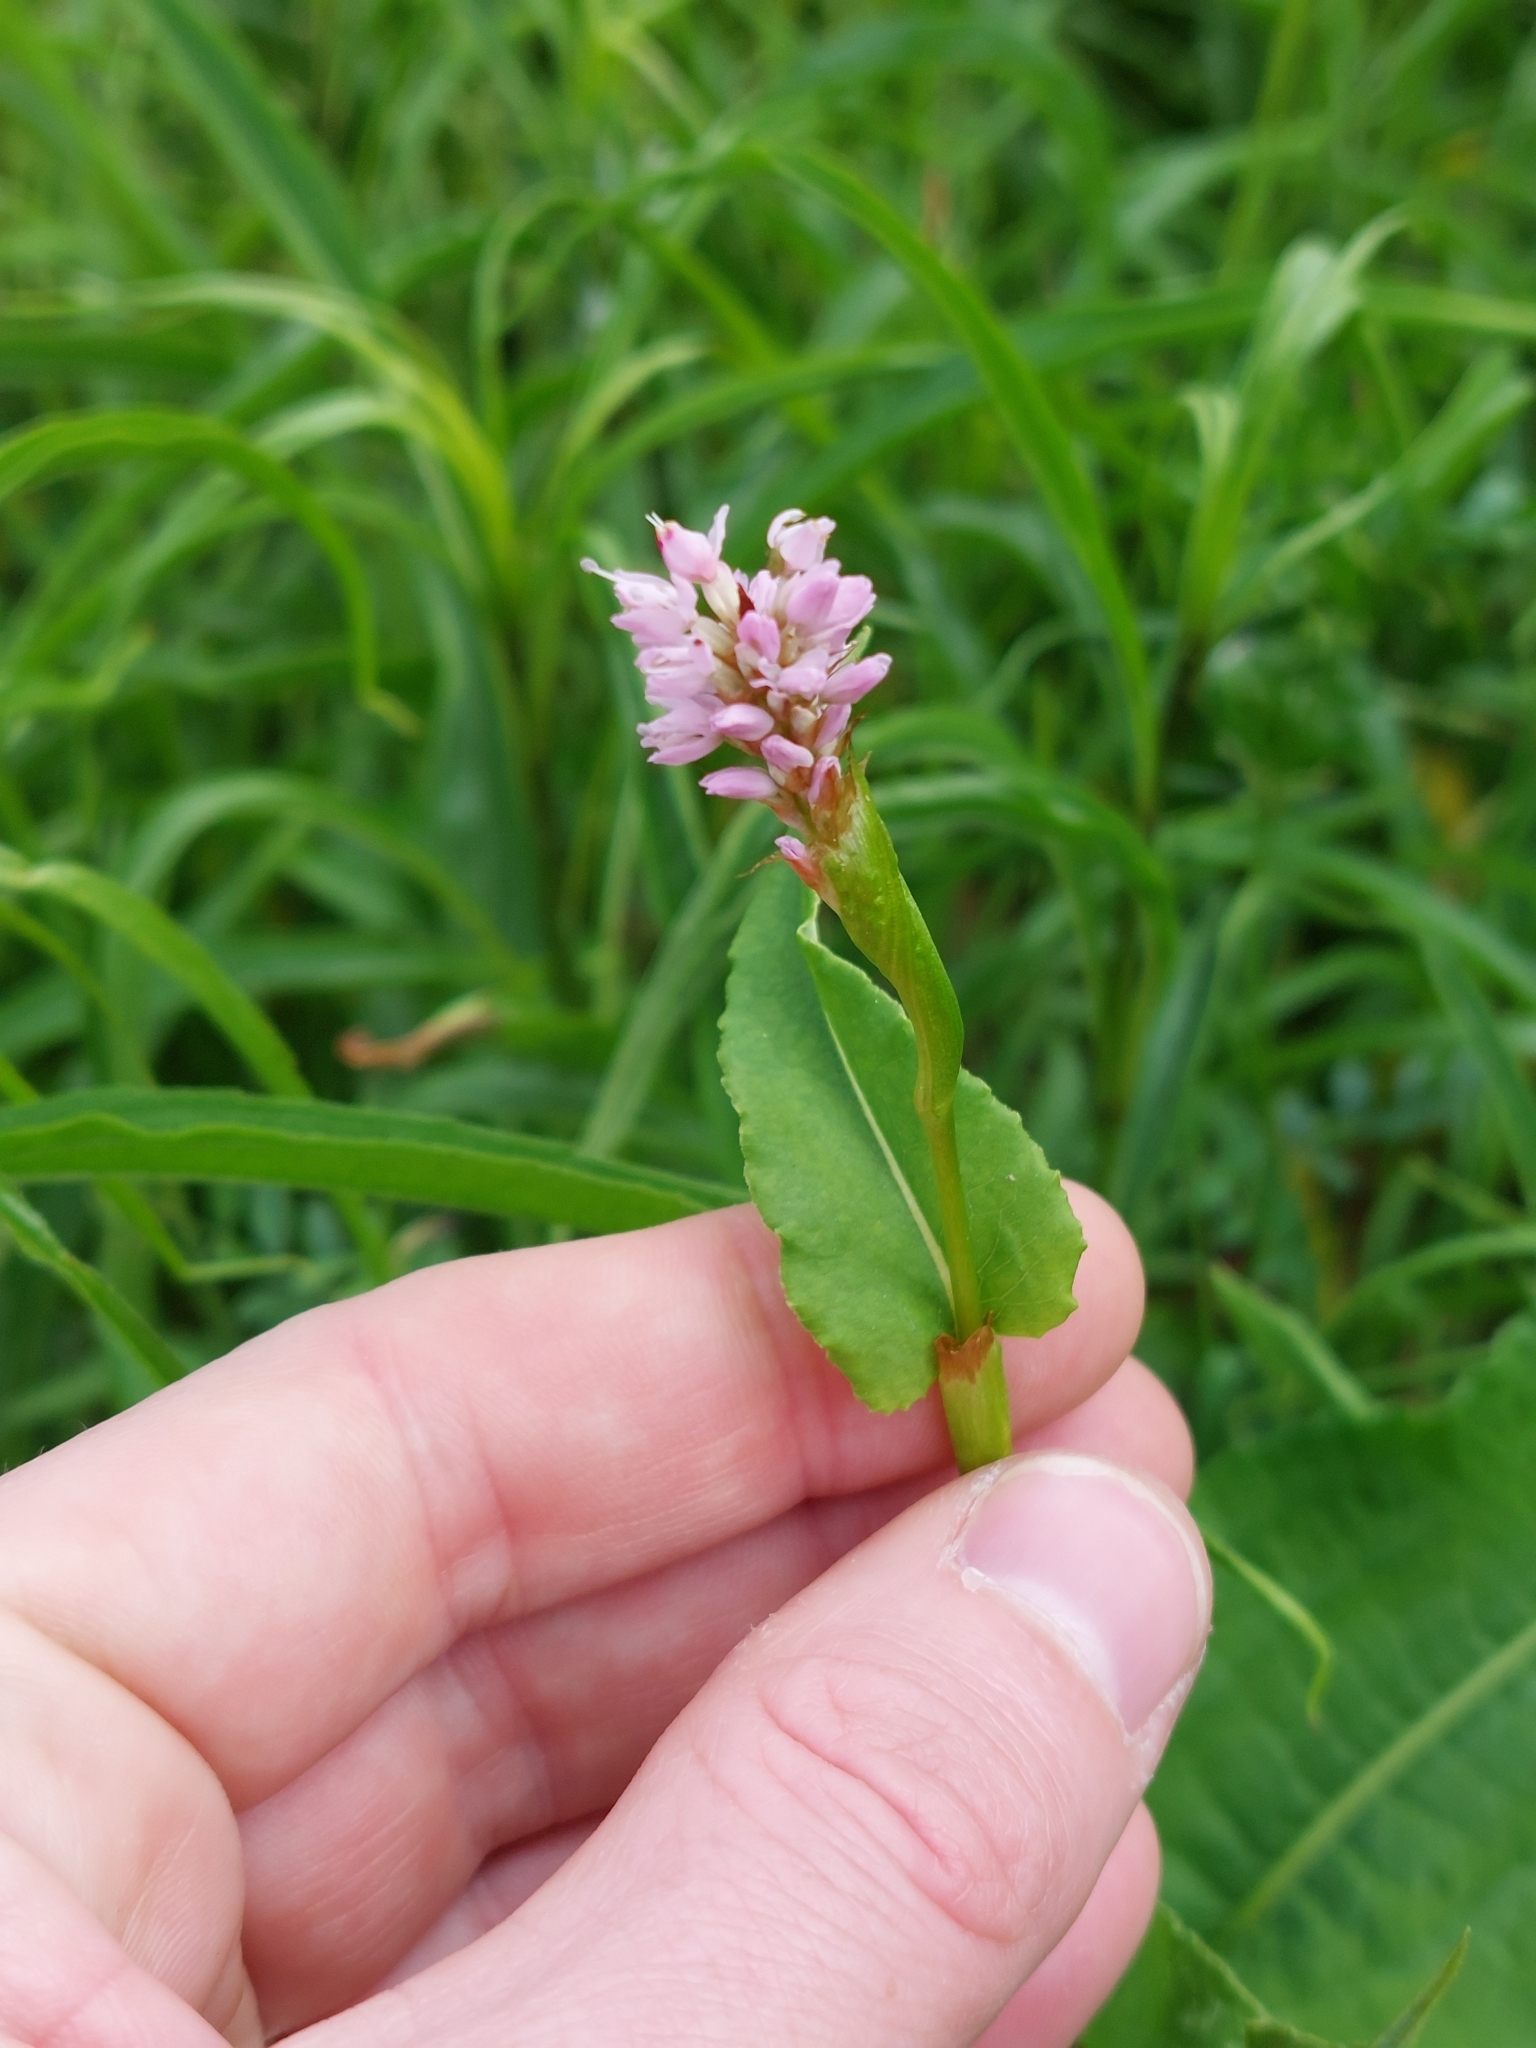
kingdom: Plantae
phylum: Tracheophyta
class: Magnoliopsida
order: Caryophyllales
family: Polygonaceae
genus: Bistorta
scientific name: Bistorta officinalis
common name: Common bistort
